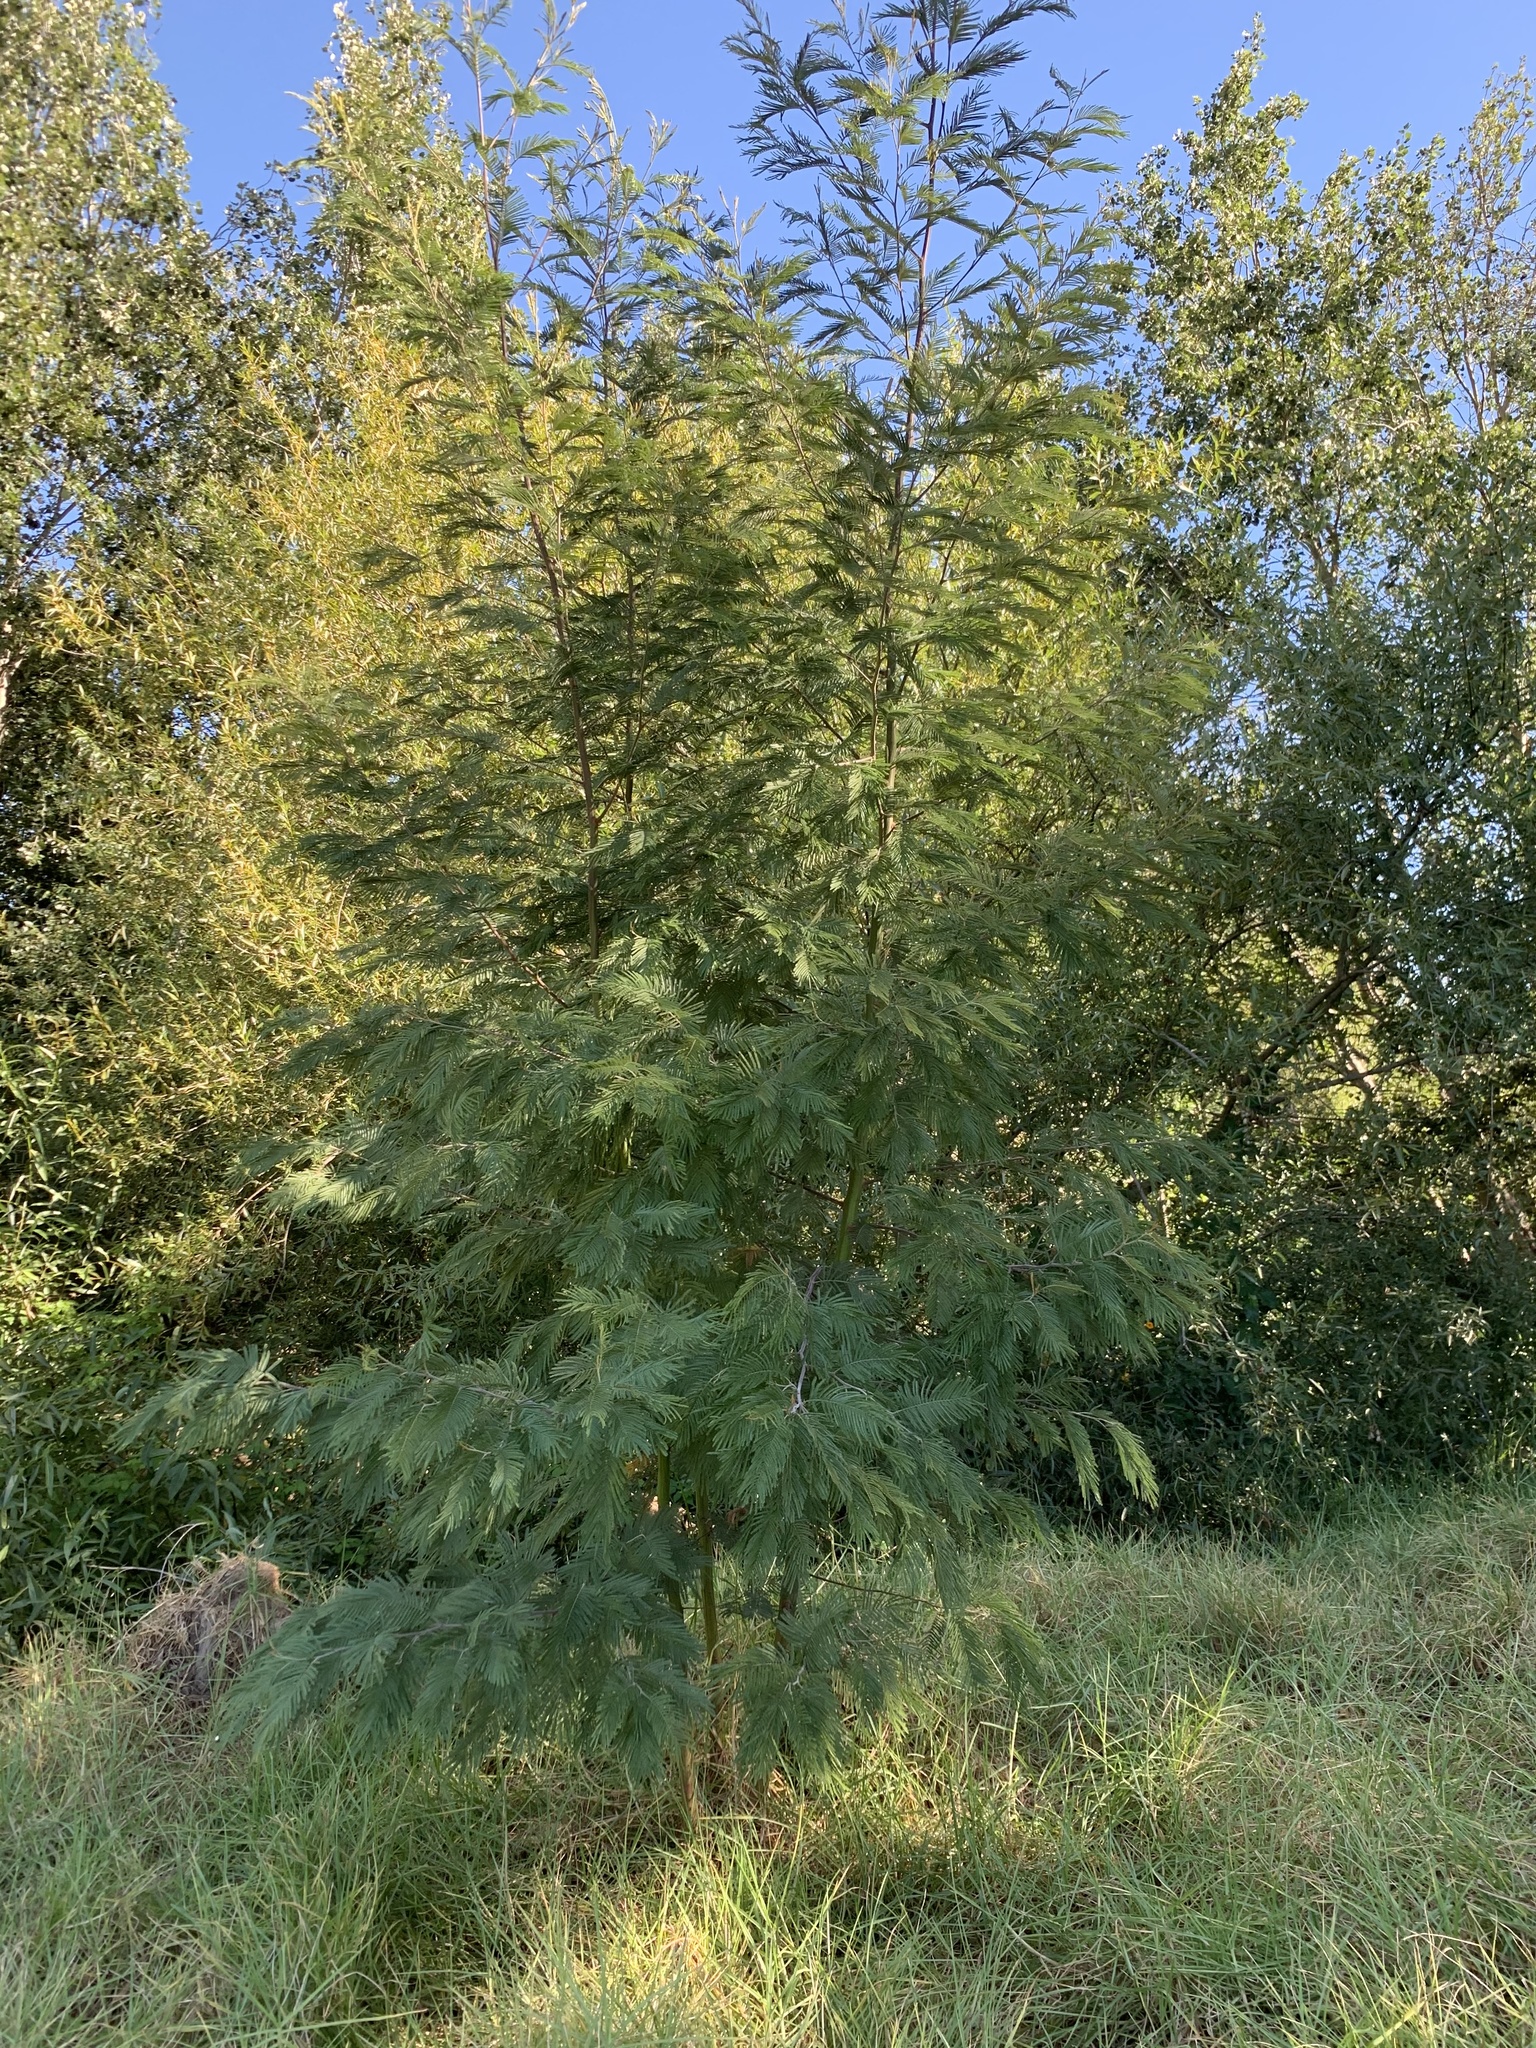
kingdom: Plantae
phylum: Tracheophyta
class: Magnoliopsida
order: Fabales
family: Fabaceae
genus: Acacia
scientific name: Acacia mearnsii
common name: Black wattle
